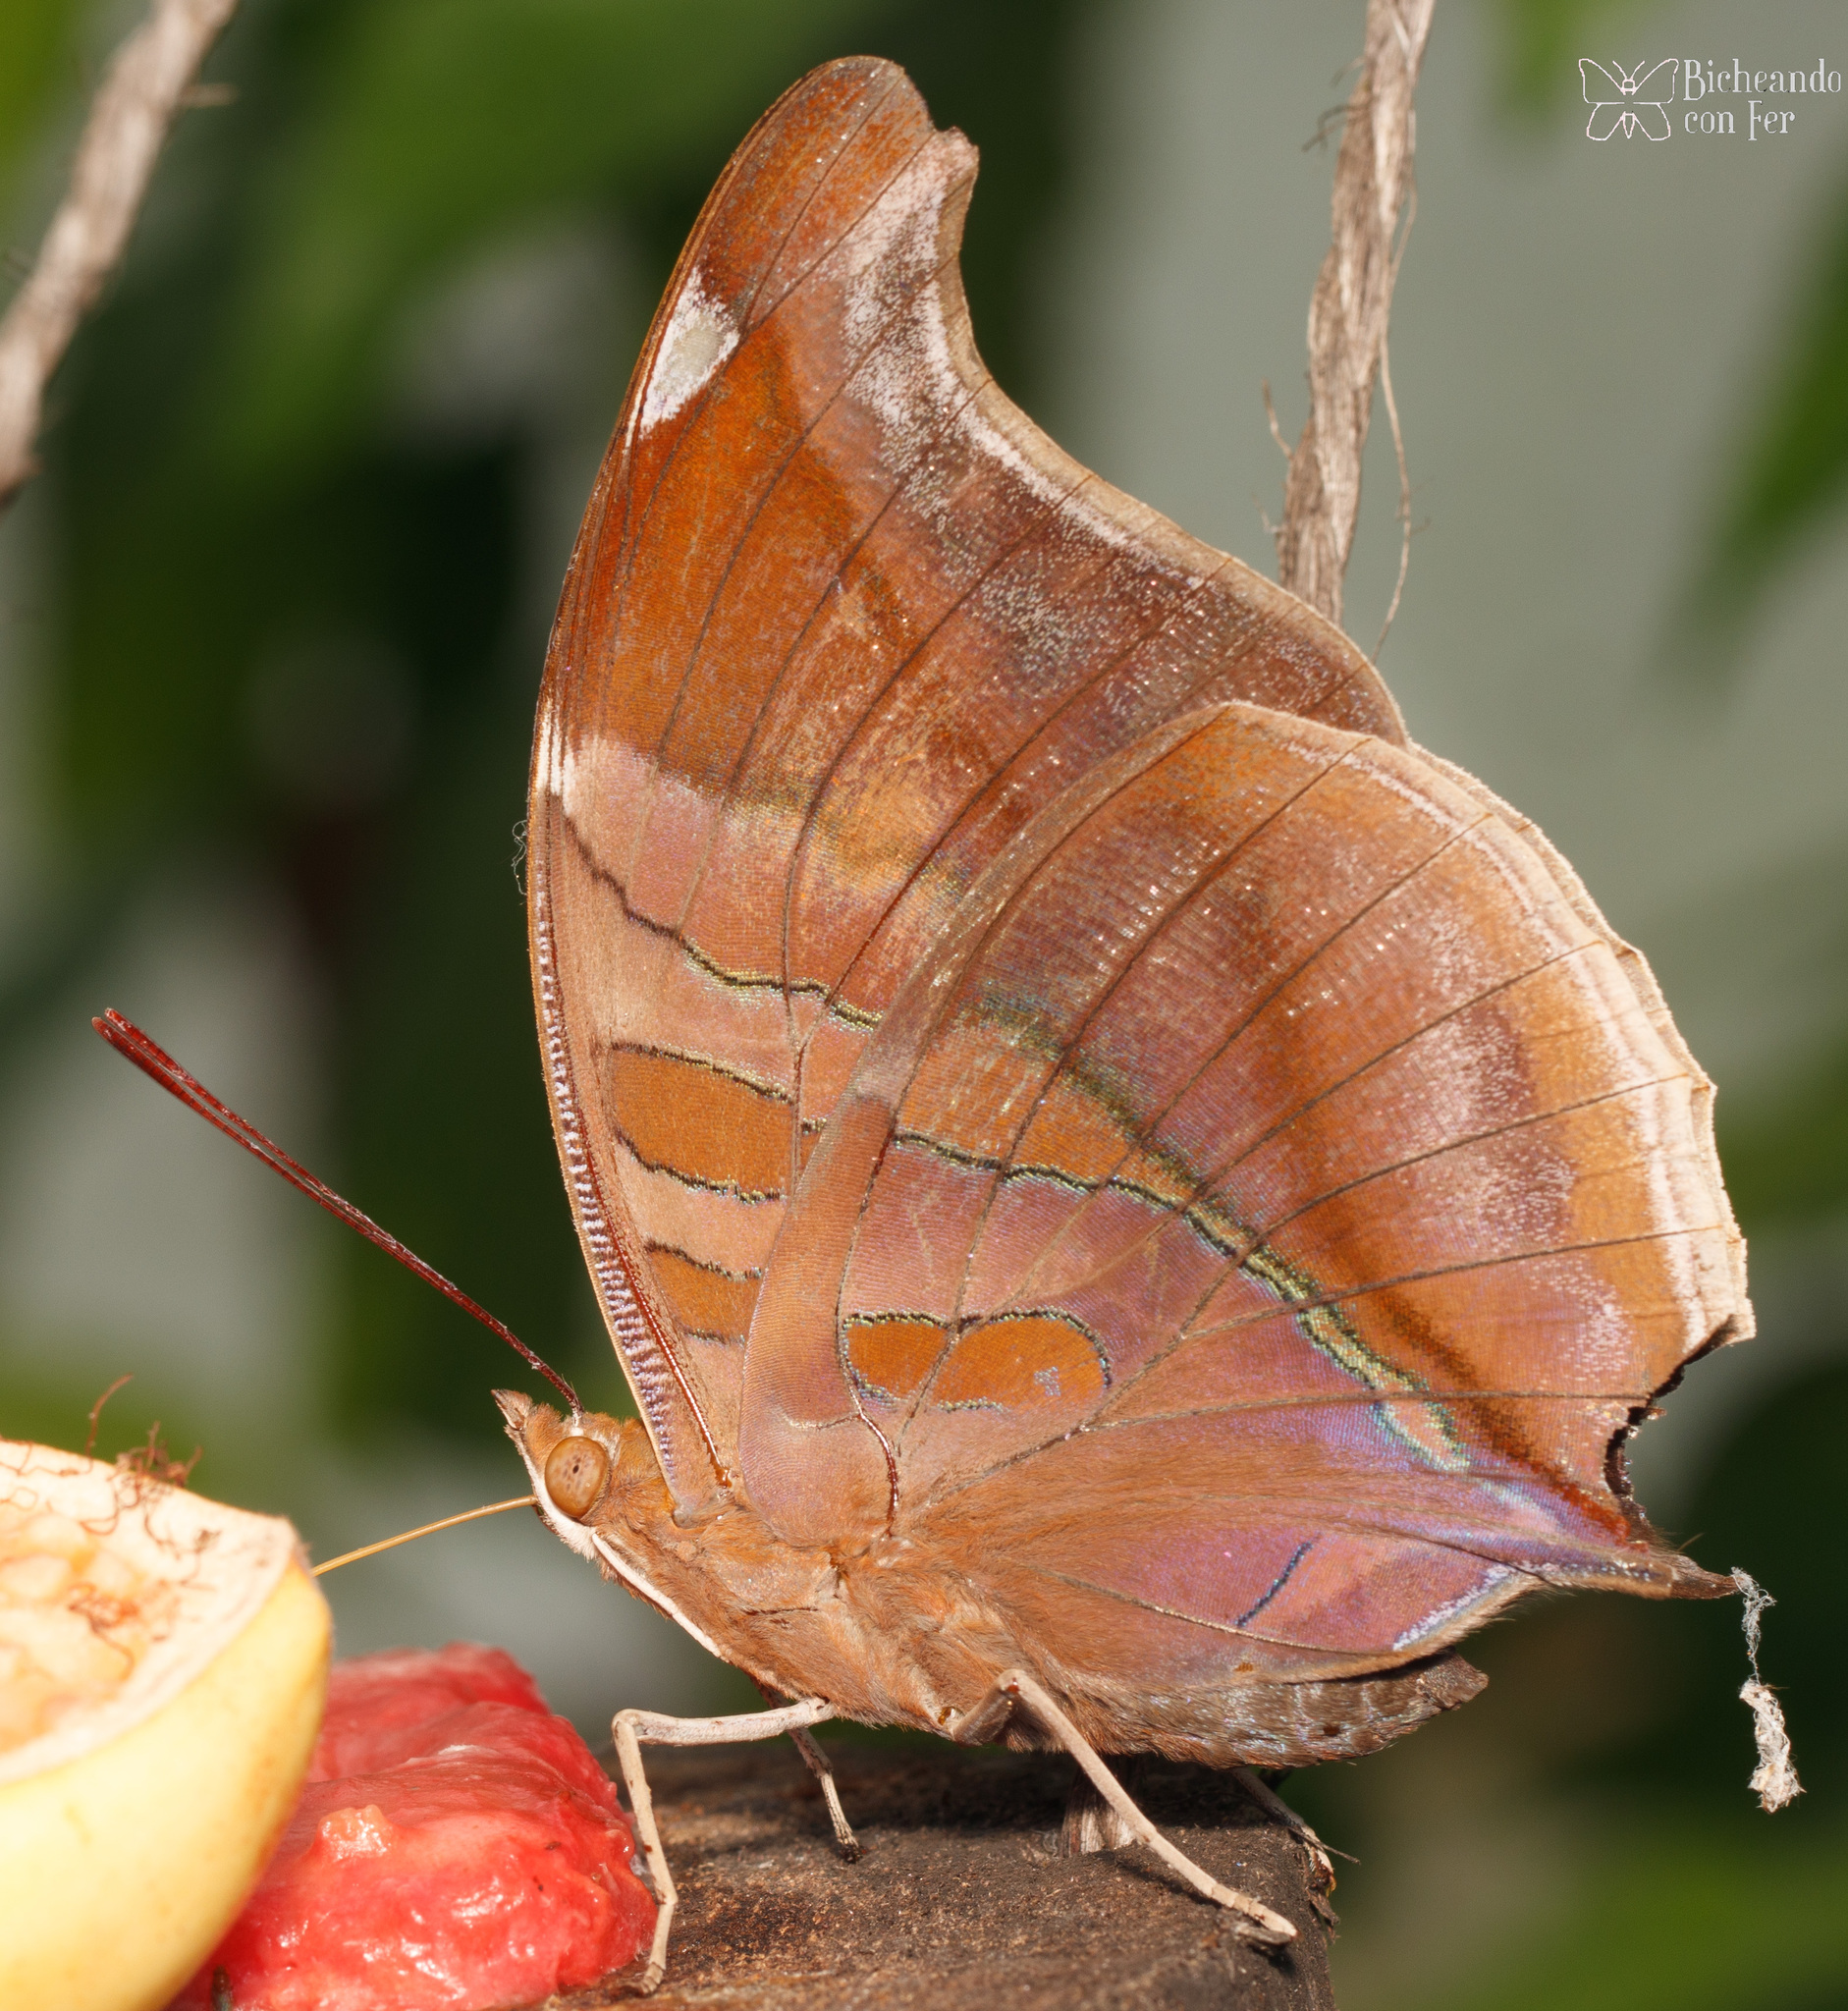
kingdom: Animalia
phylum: Arthropoda
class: Insecta
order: Lepidoptera
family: Nymphalidae
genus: Historis
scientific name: Historis odius
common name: Orion cecropian
